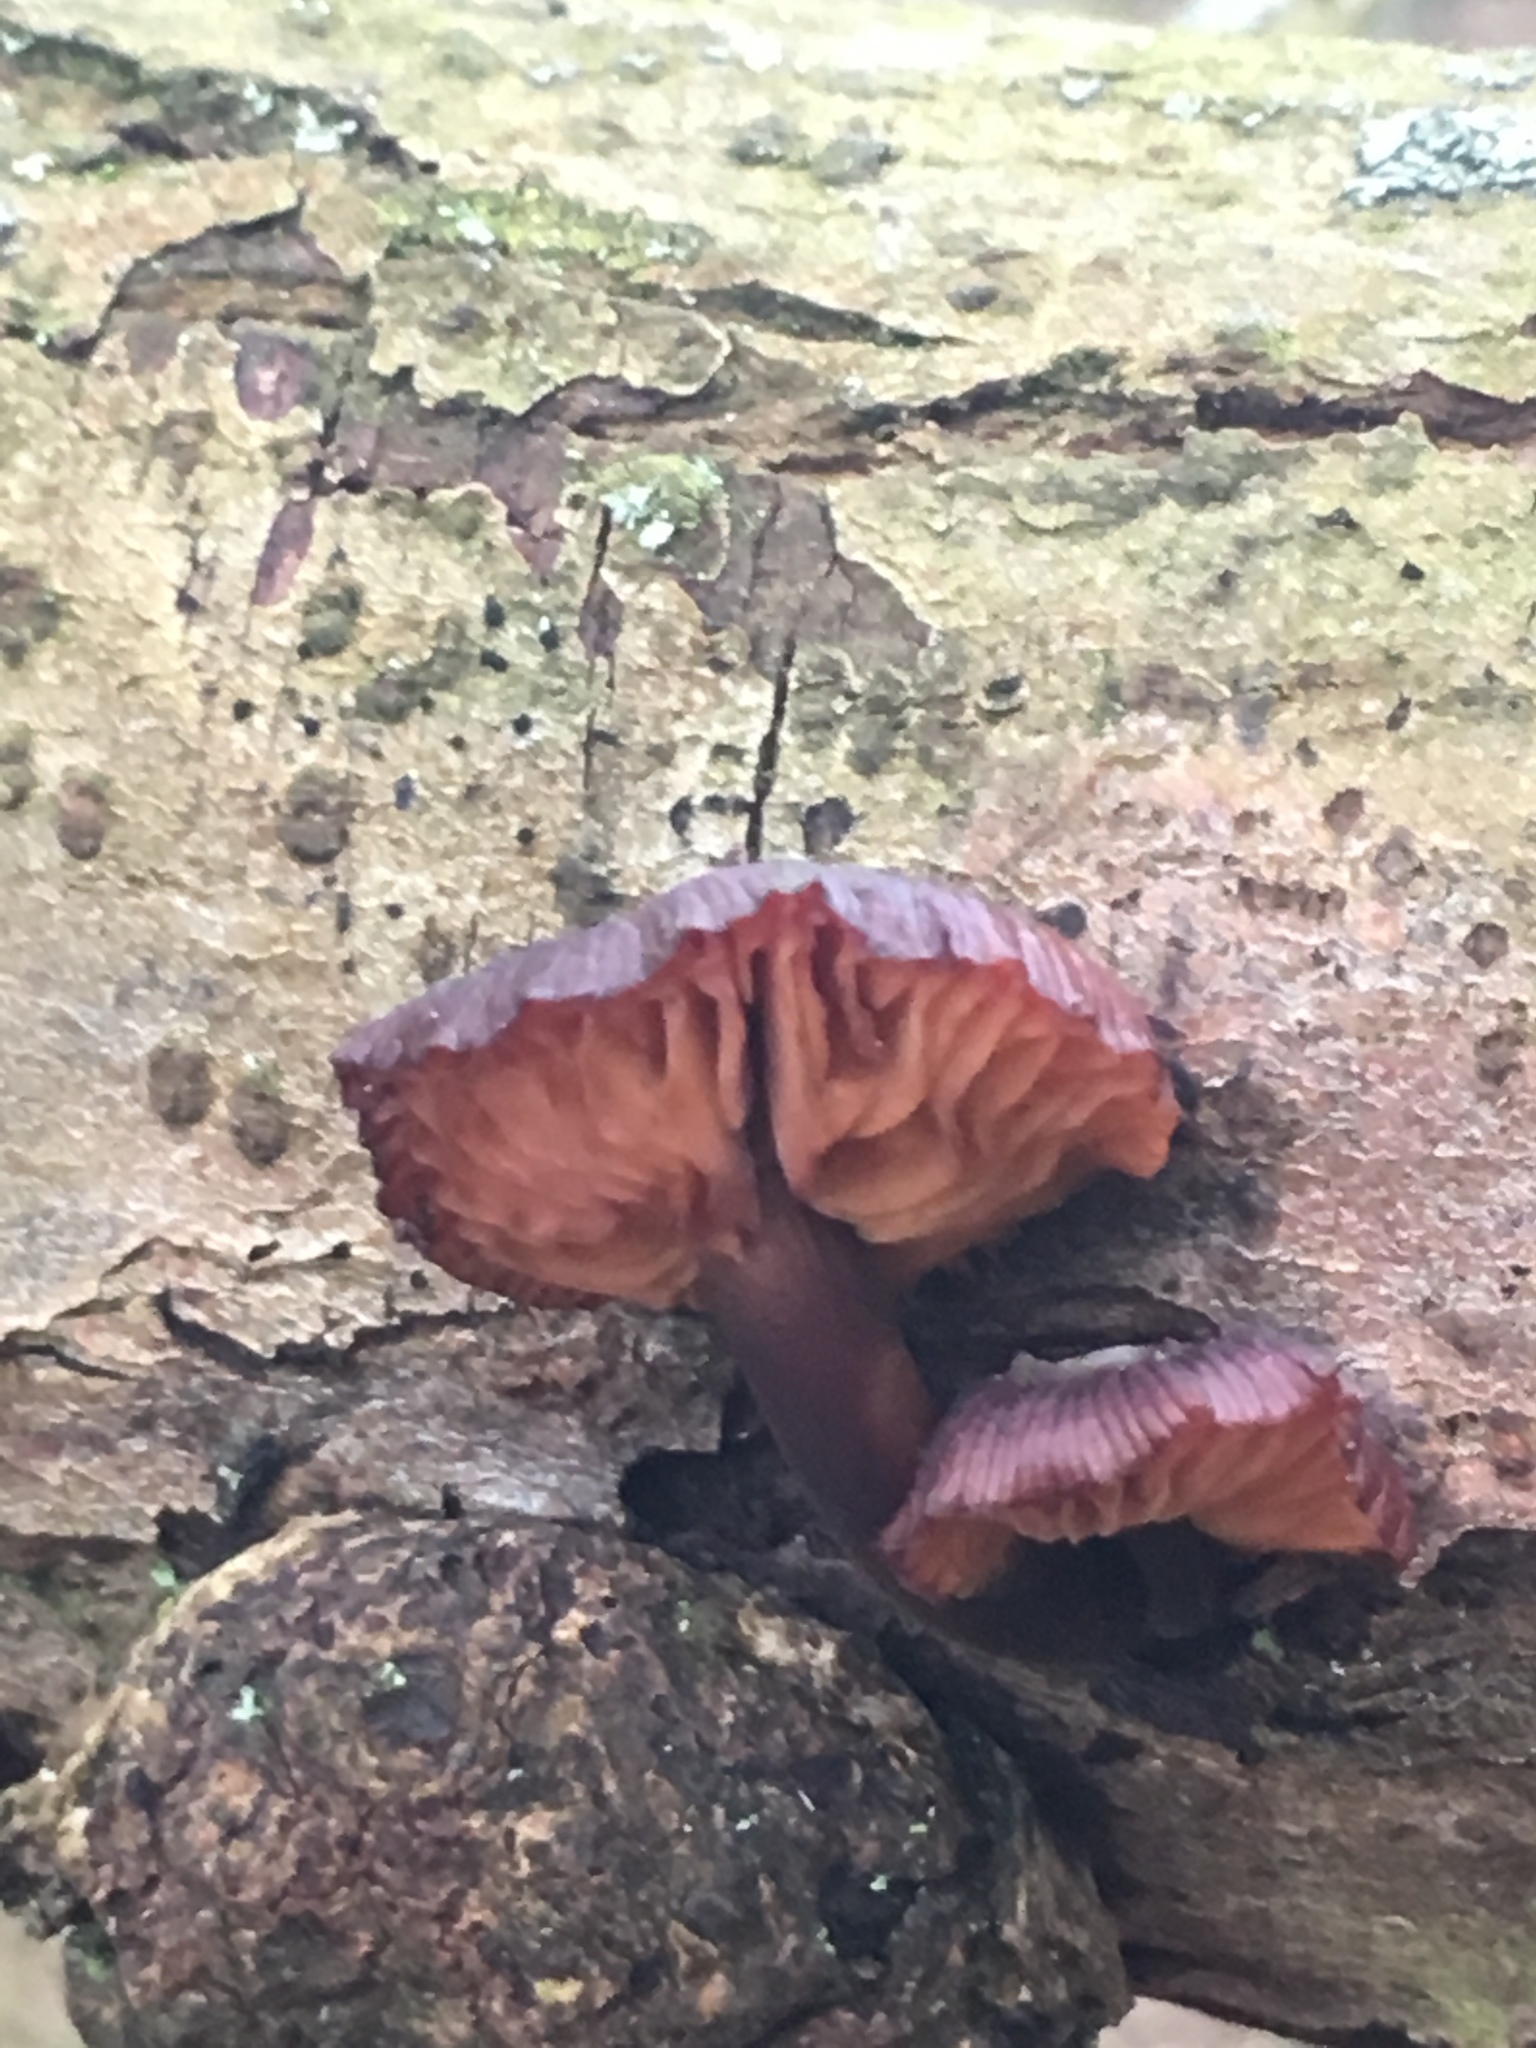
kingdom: Fungi
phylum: Basidiomycota
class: Agaricomycetes
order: Agaricales
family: Physalacriaceae
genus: Flammulina
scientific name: Flammulina
